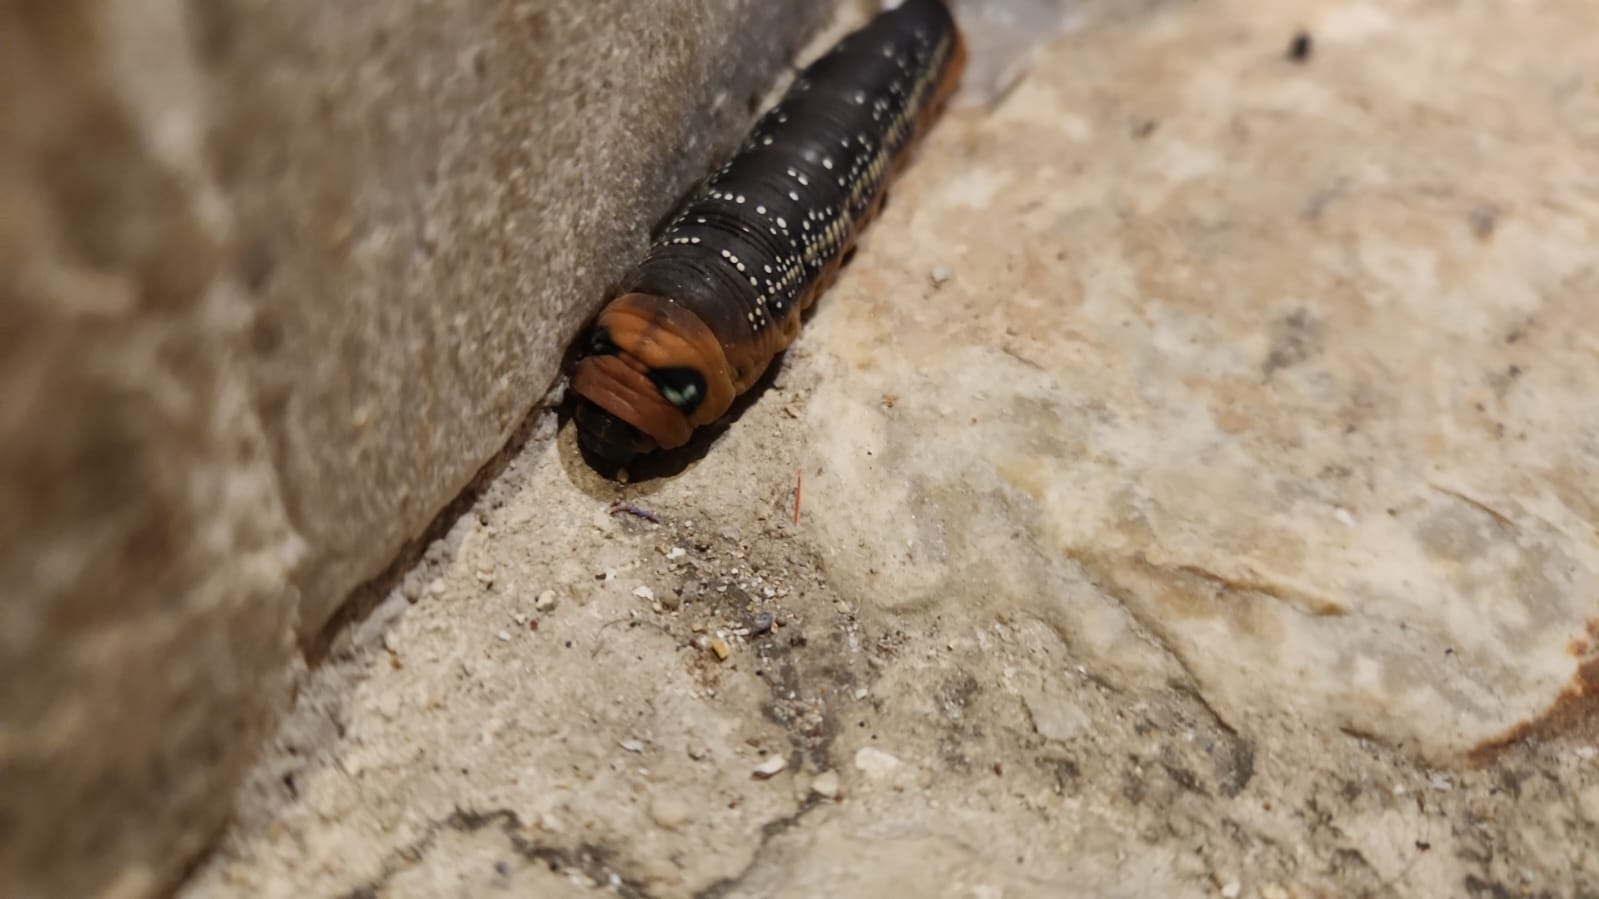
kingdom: Animalia
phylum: Arthropoda
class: Insecta
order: Lepidoptera
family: Sphingidae
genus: Daphnis
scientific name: Daphnis nerii
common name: Oleander hawk-moth
